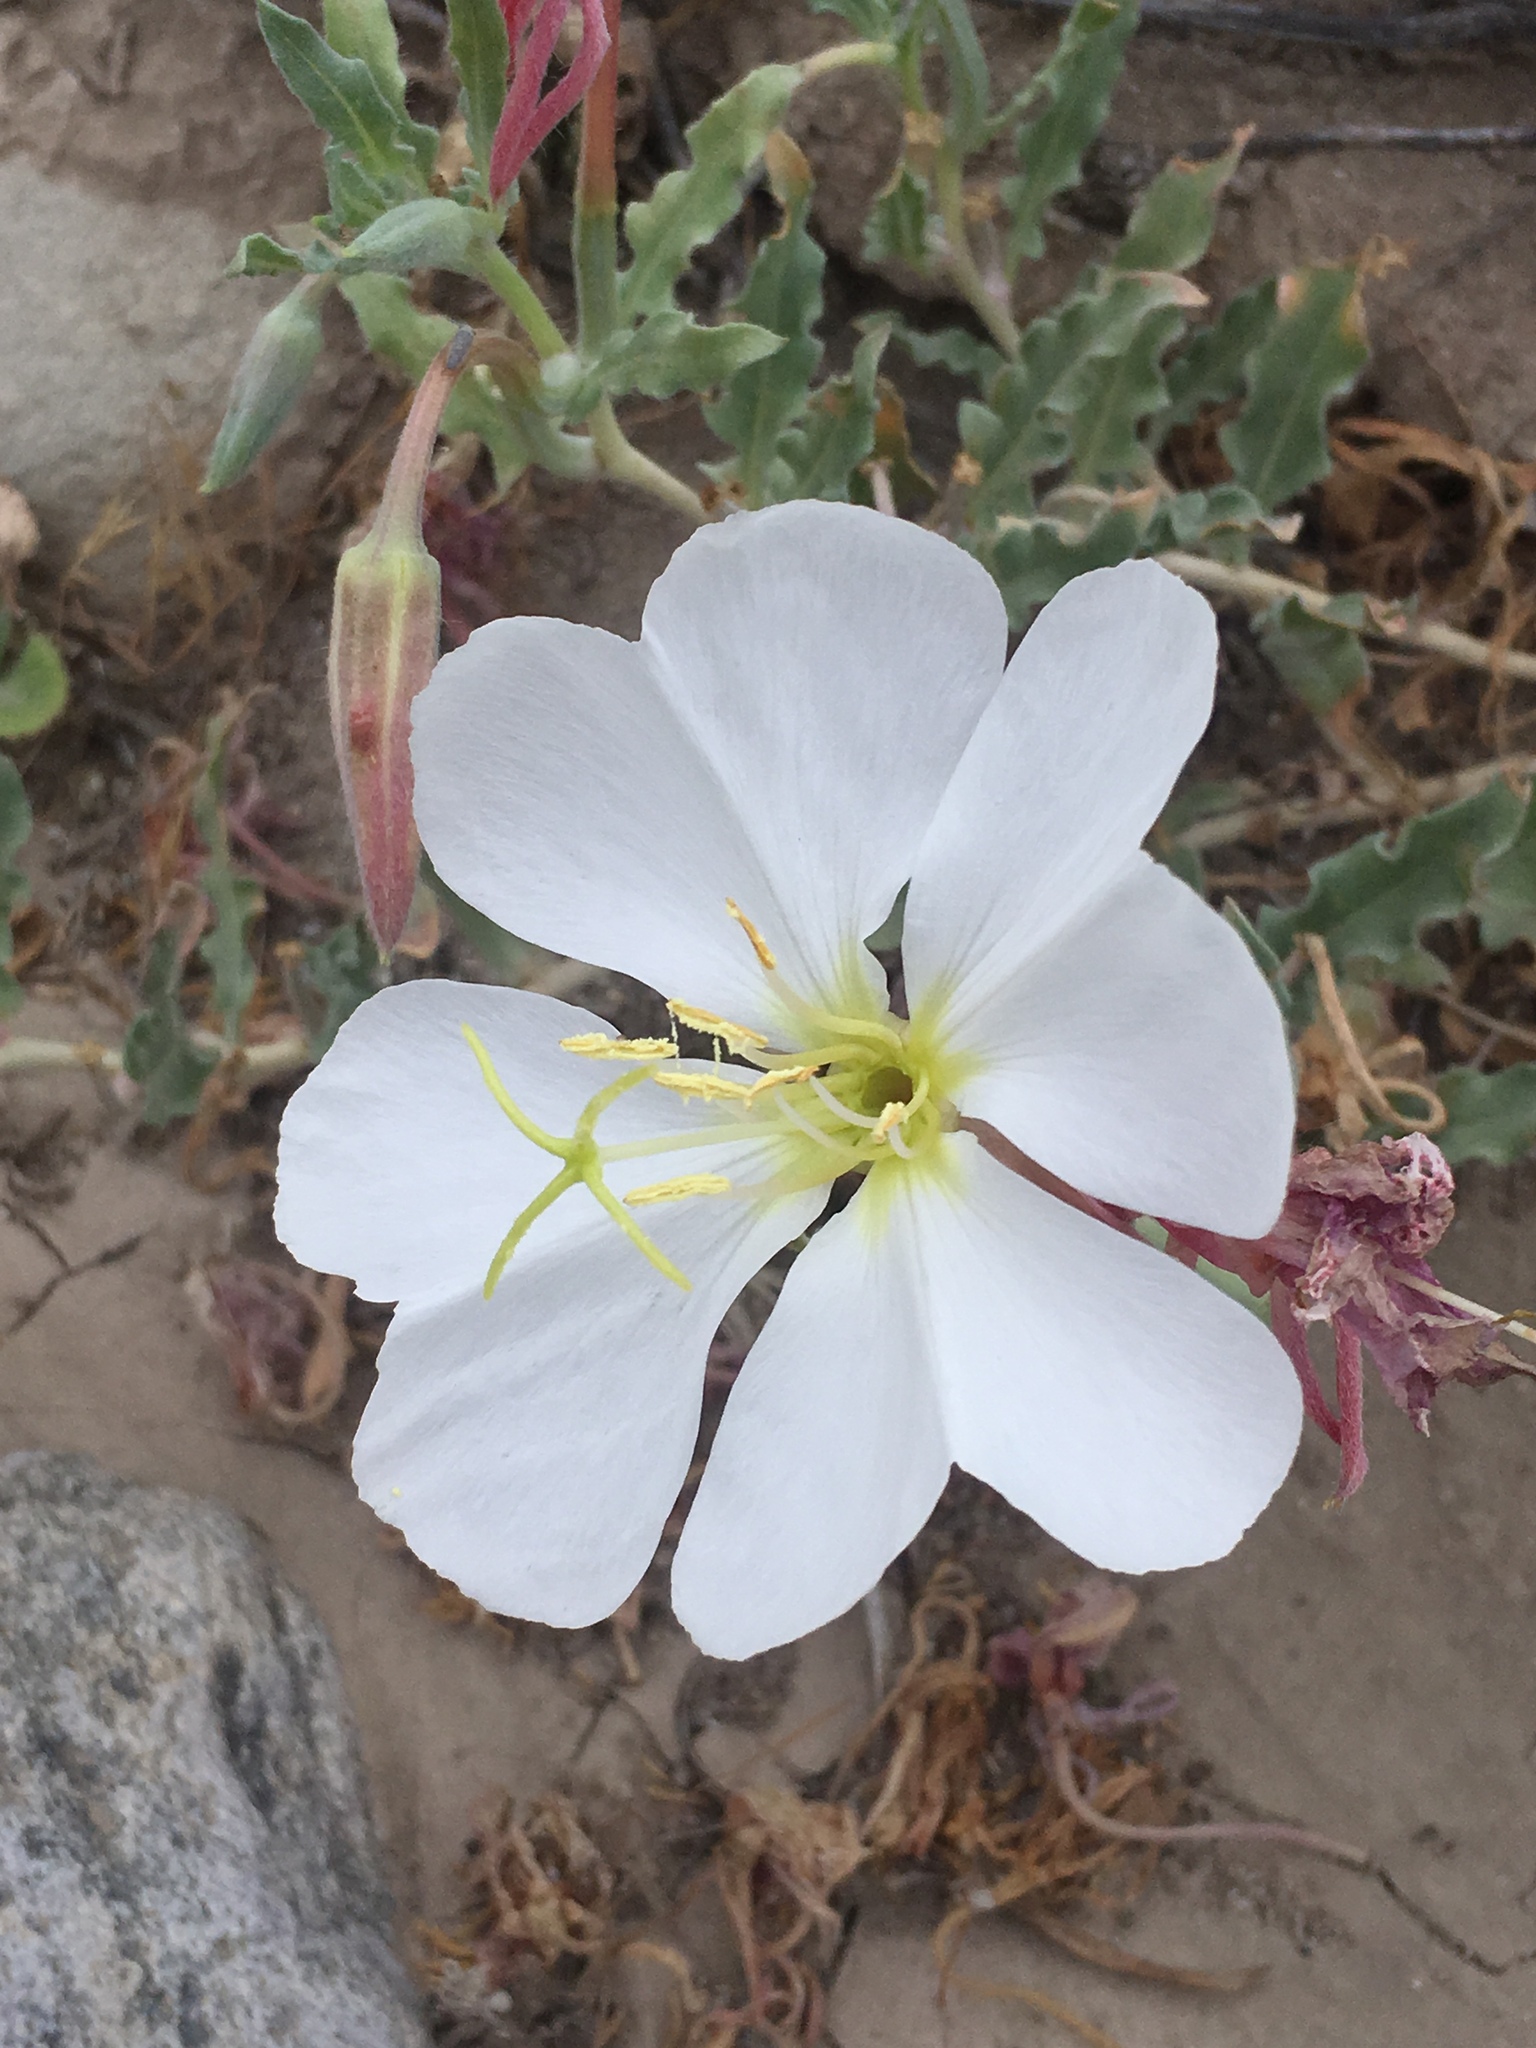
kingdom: Plantae
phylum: Tracheophyta
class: Magnoliopsida
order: Myrtales
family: Onagraceae
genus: Oenothera
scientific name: Oenothera californica
